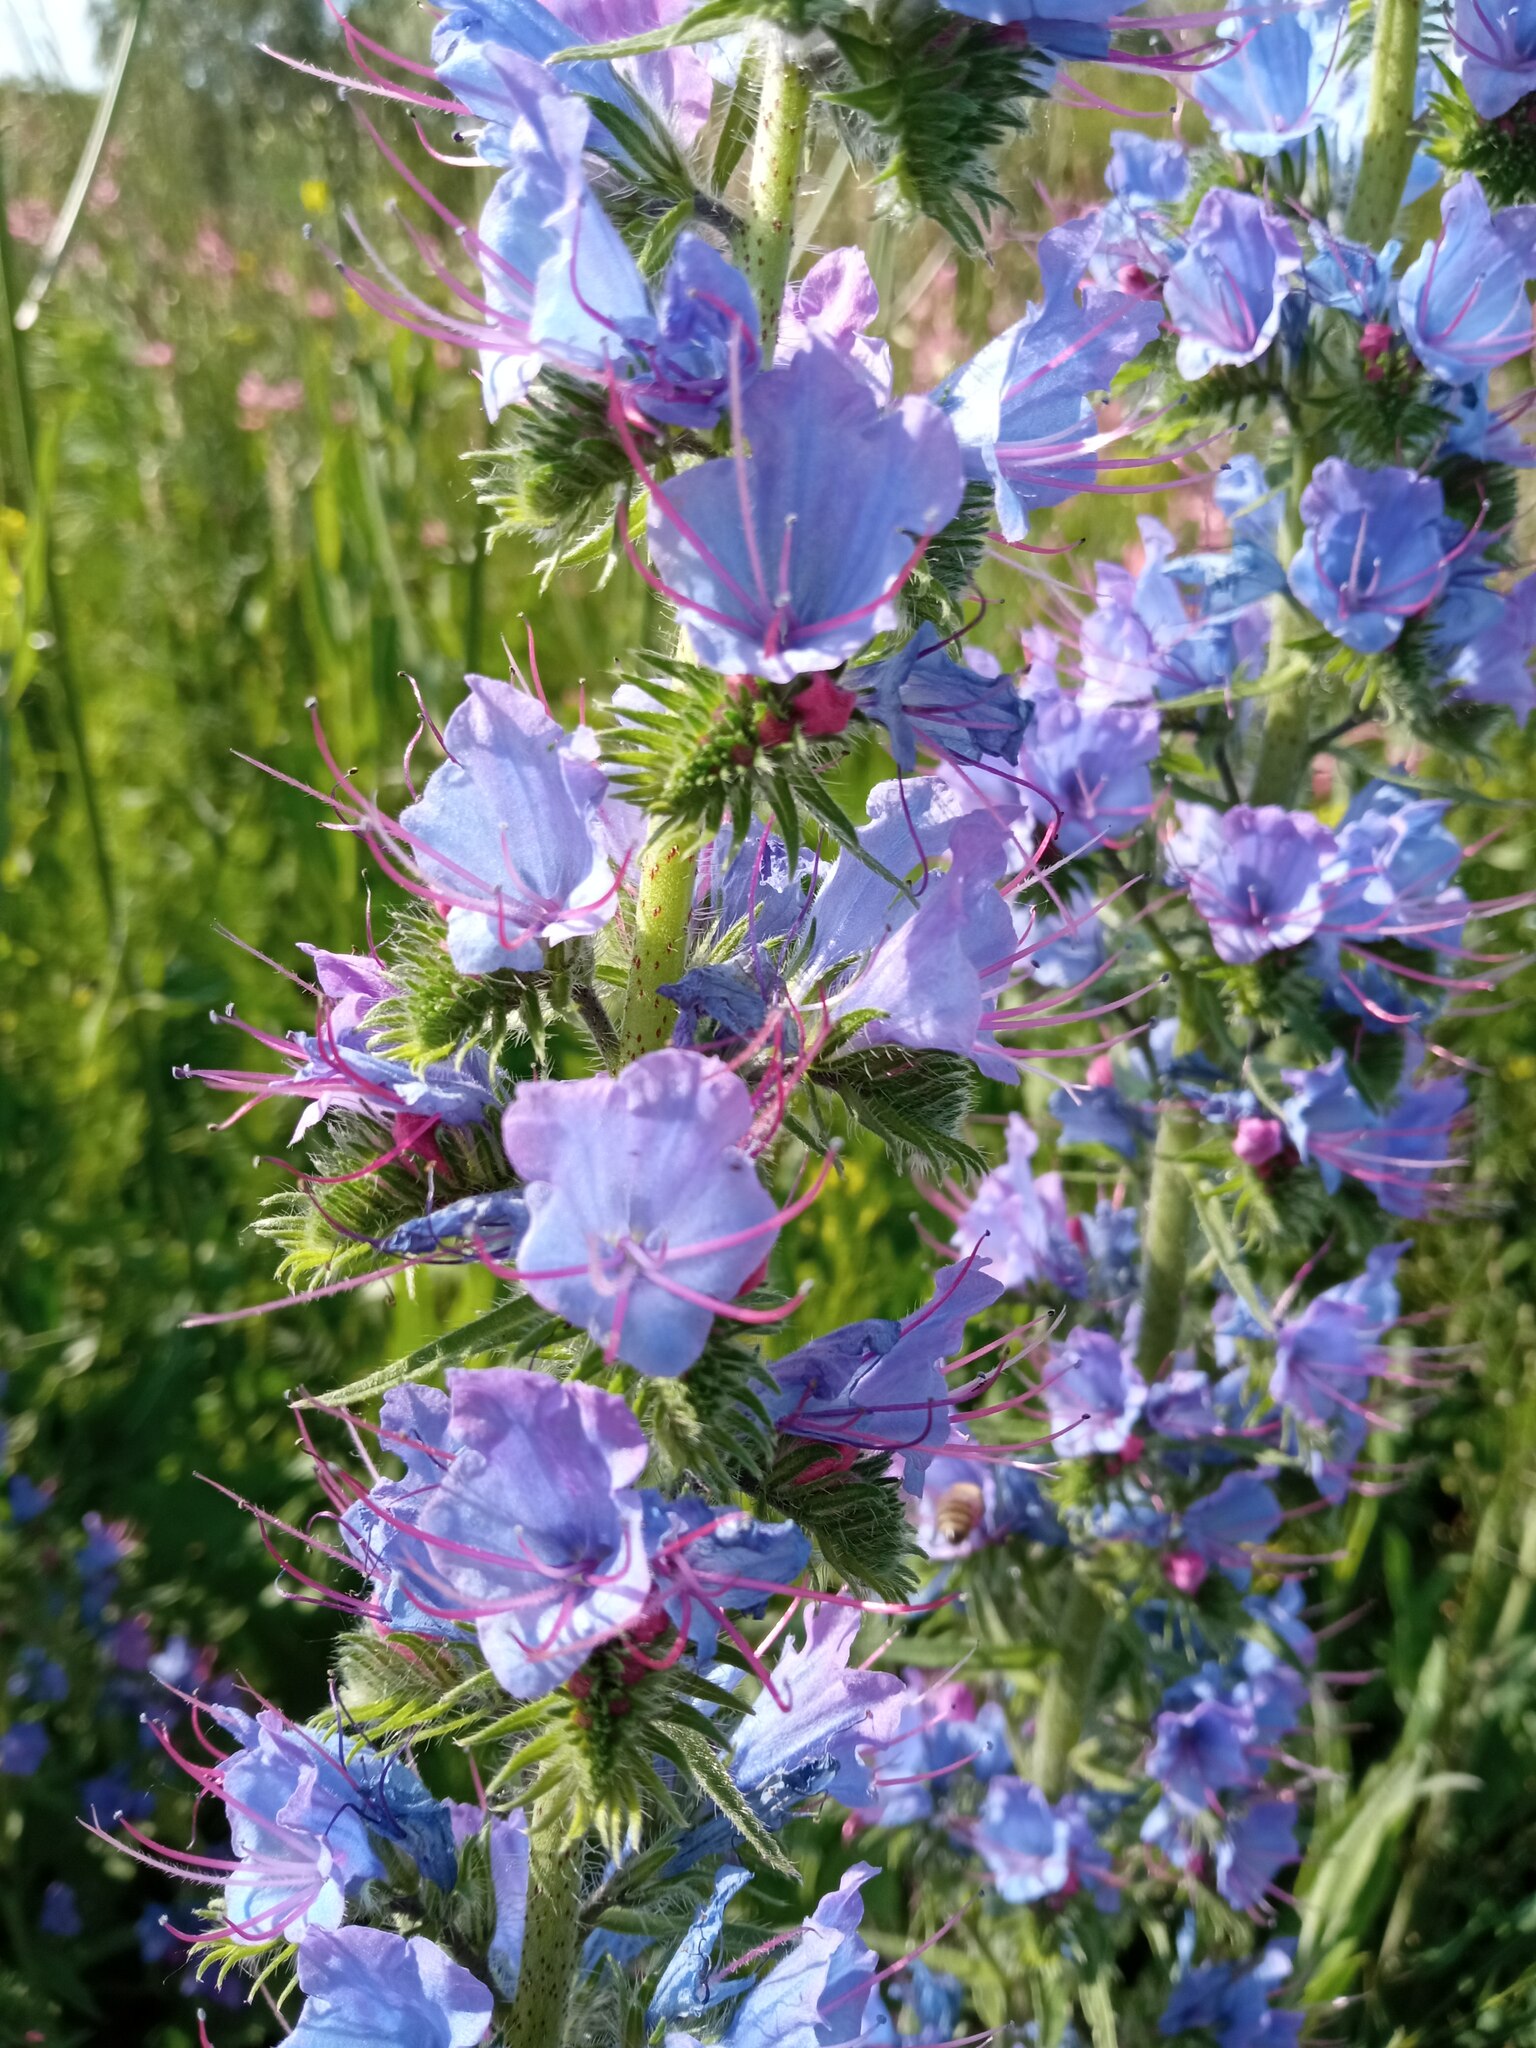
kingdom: Plantae
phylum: Tracheophyta
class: Magnoliopsida
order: Boraginales
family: Boraginaceae
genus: Echium
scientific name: Echium vulgare
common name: Common viper's bugloss
